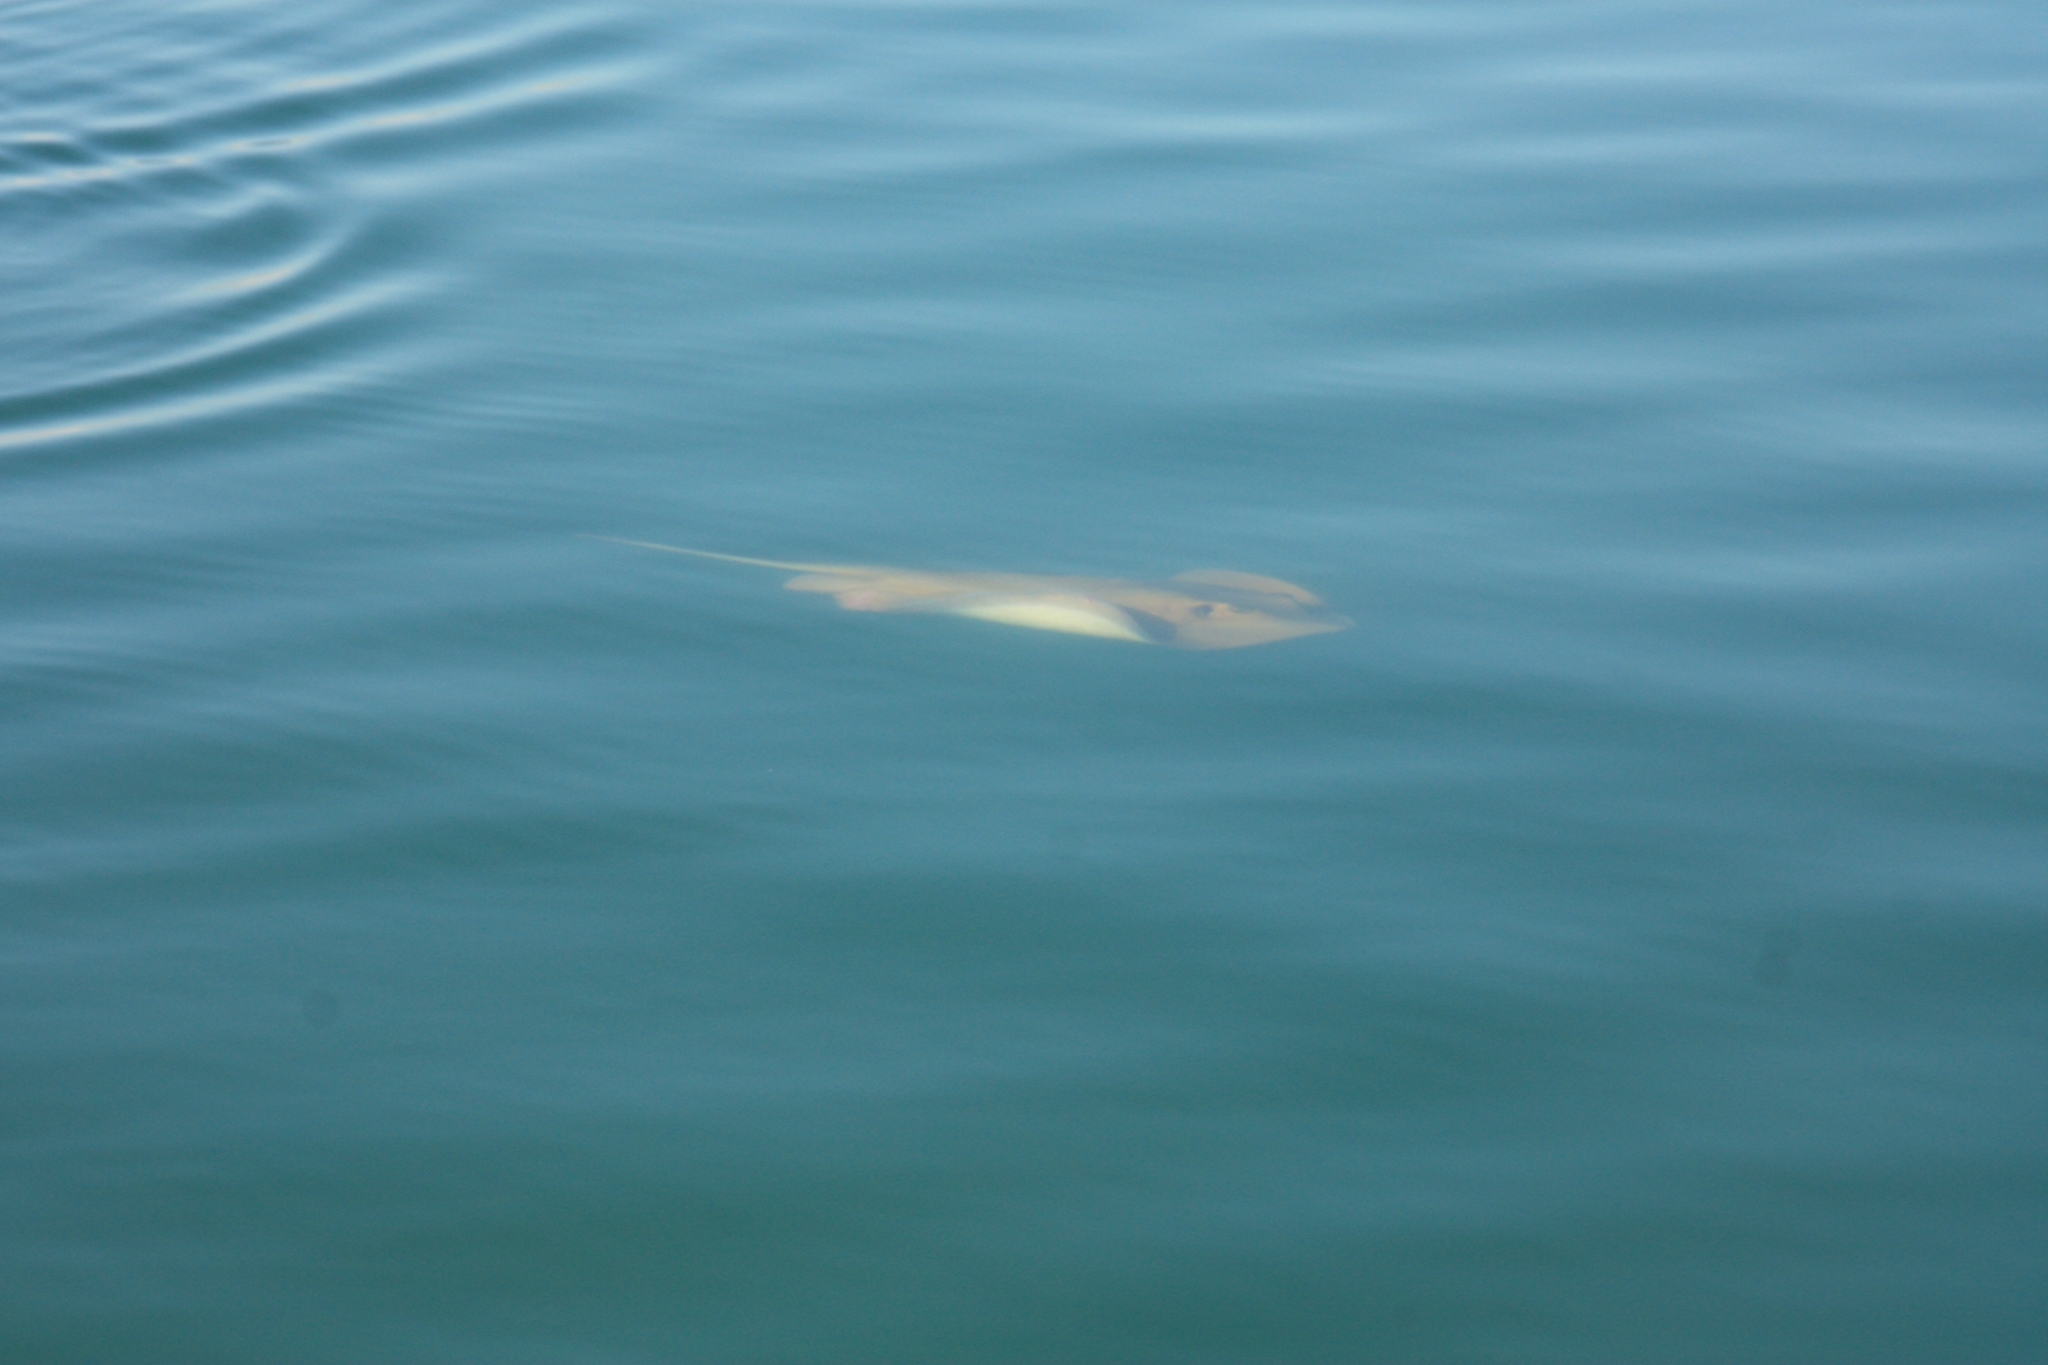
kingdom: Animalia
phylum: Chordata
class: Elasmobranchii
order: Myliobatiformes
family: Dasyatidae
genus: Dasyatis
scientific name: Dasyatis
